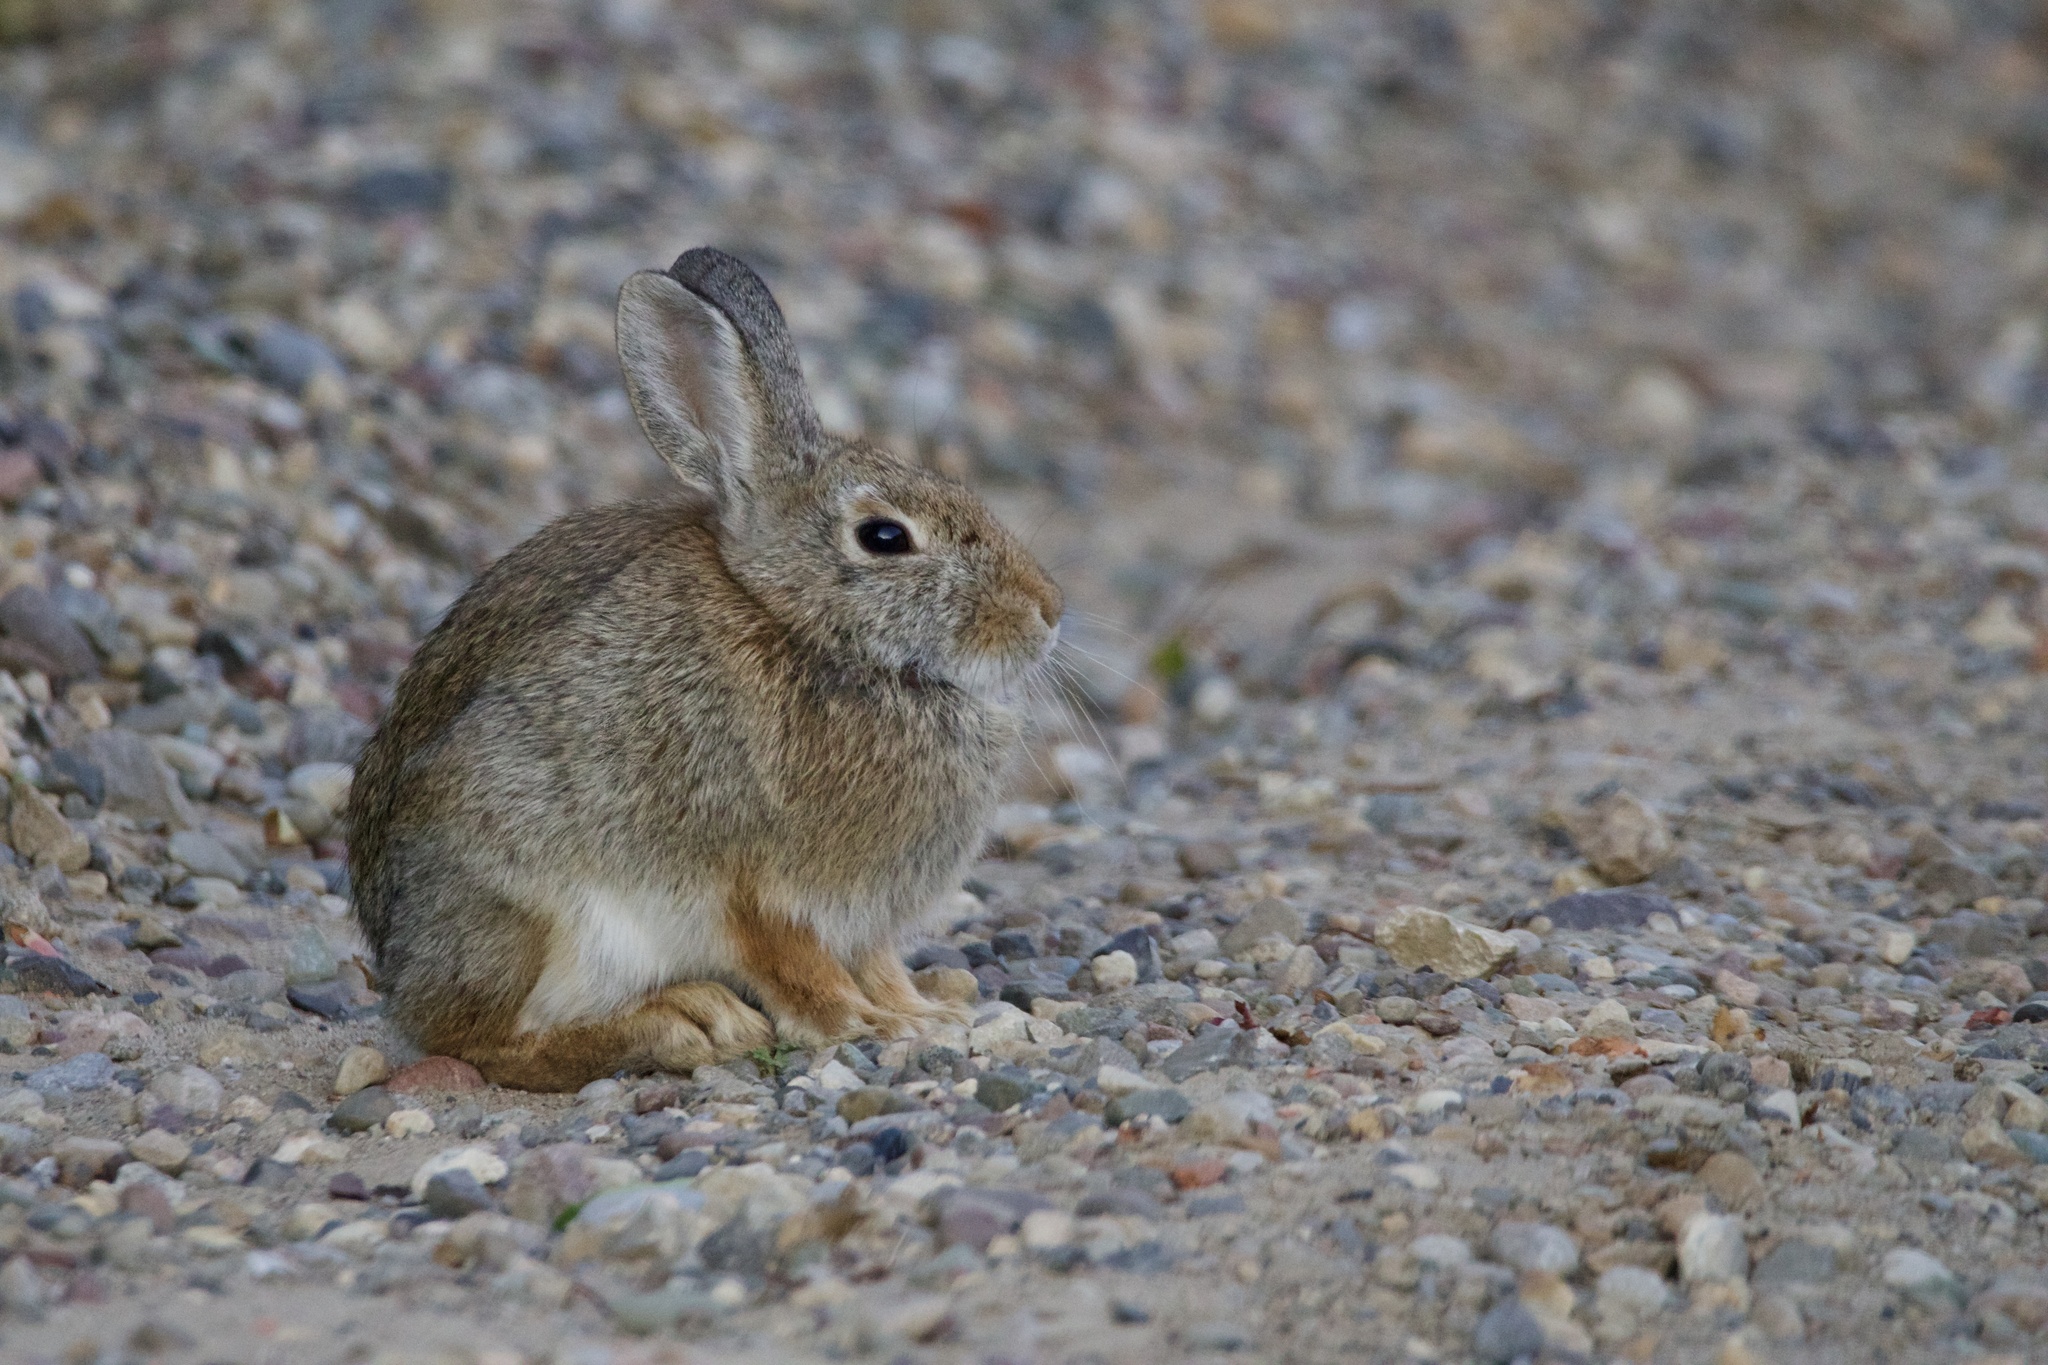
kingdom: Animalia
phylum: Chordata
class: Mammalia
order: Lagomorpha
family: Leporidae
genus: Sylvilagus
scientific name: Sylvilagus nuttallii
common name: Mountain cottontail
